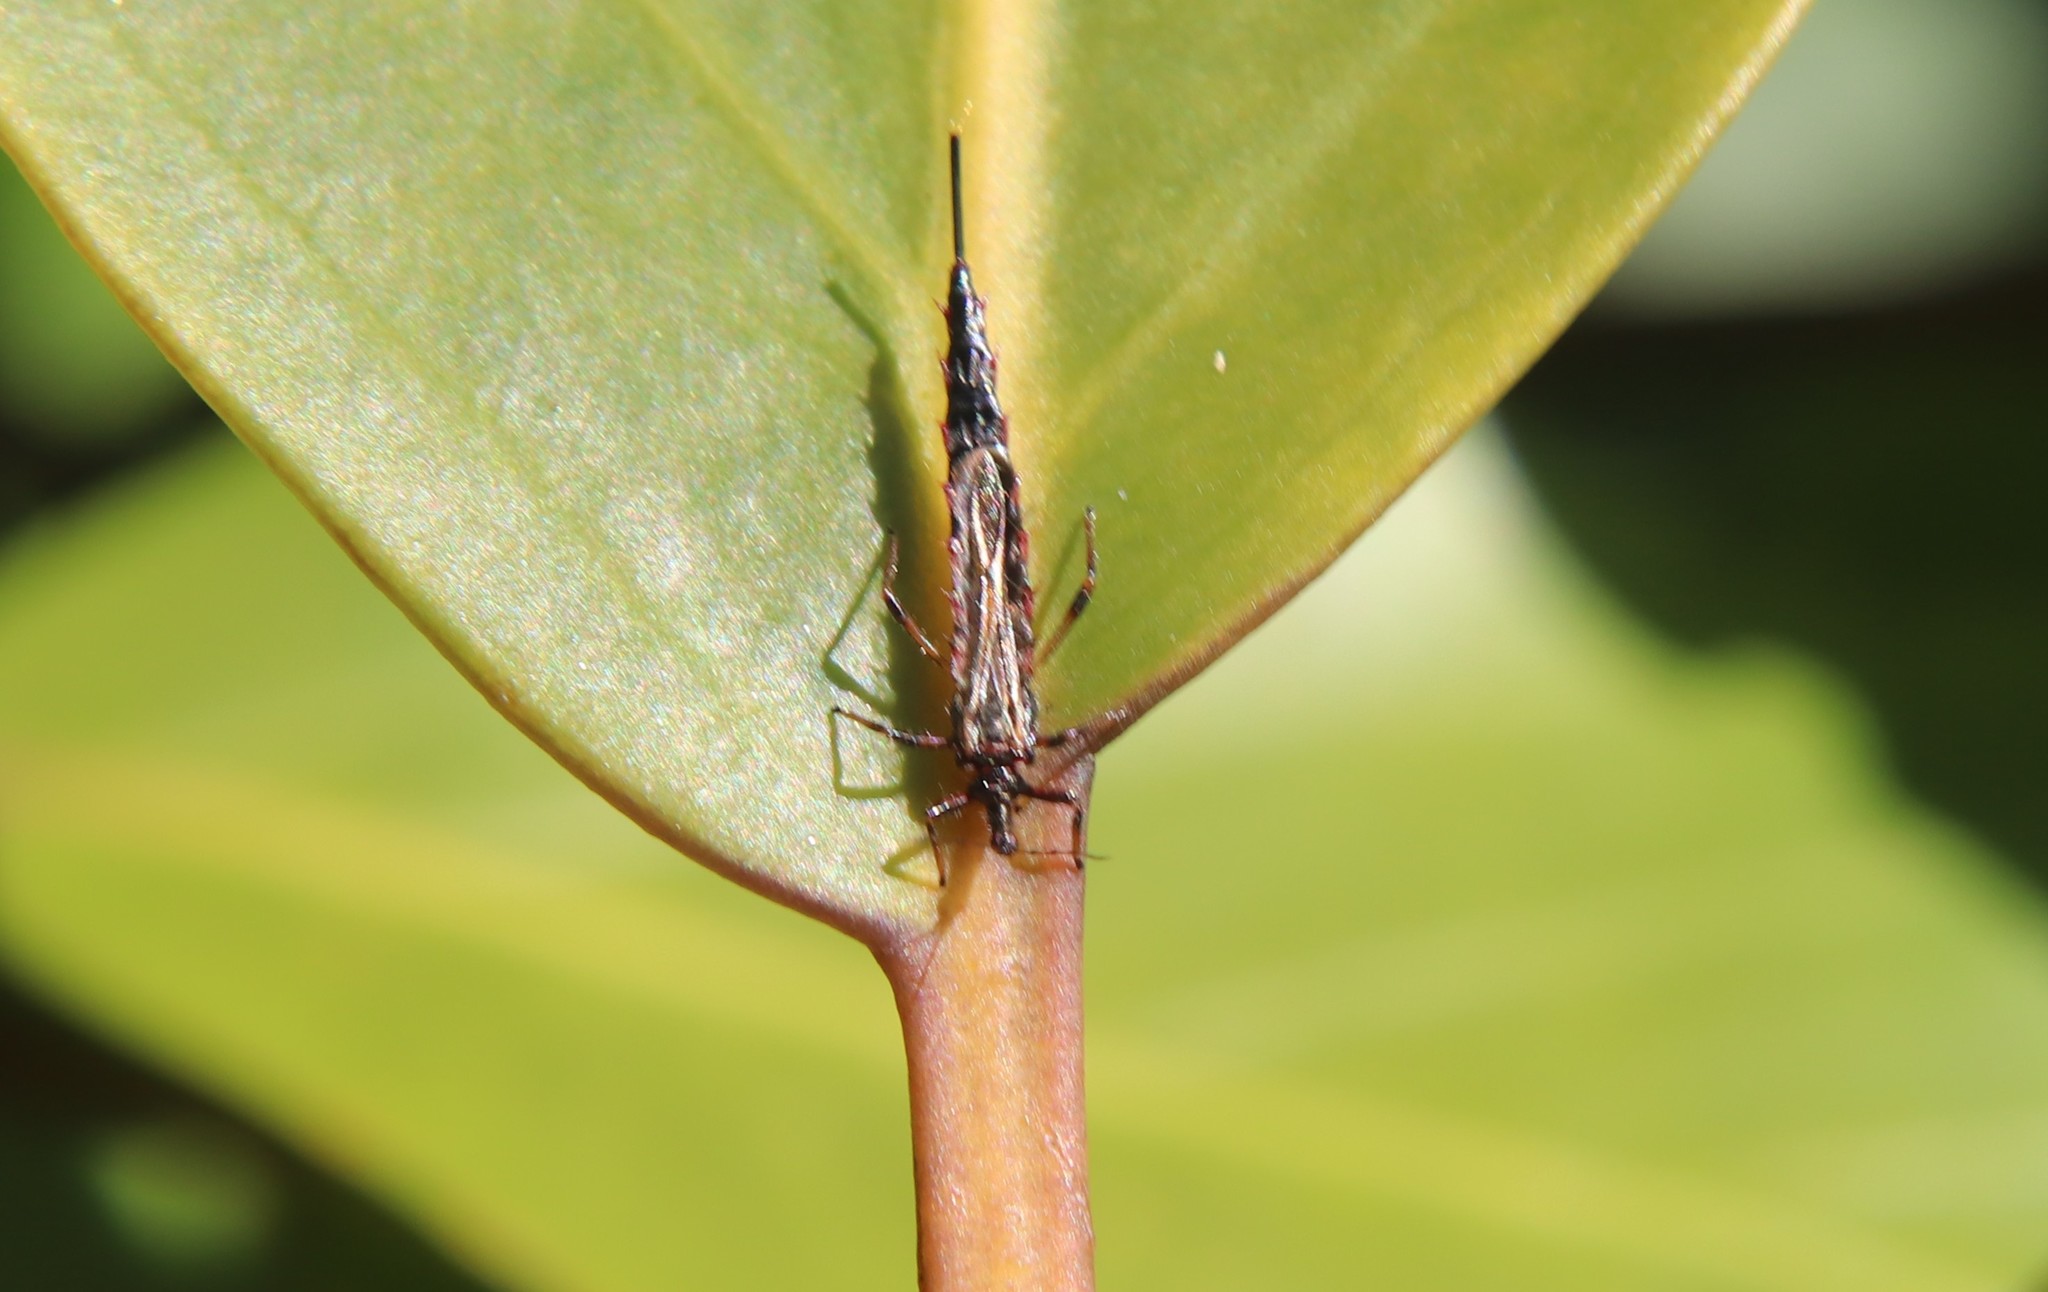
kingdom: Animalia
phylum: Arthropoda
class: Insecta
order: Thysanoptera
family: Phlaeothripidae
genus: Idolothrips
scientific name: Idolothrips spectrum
